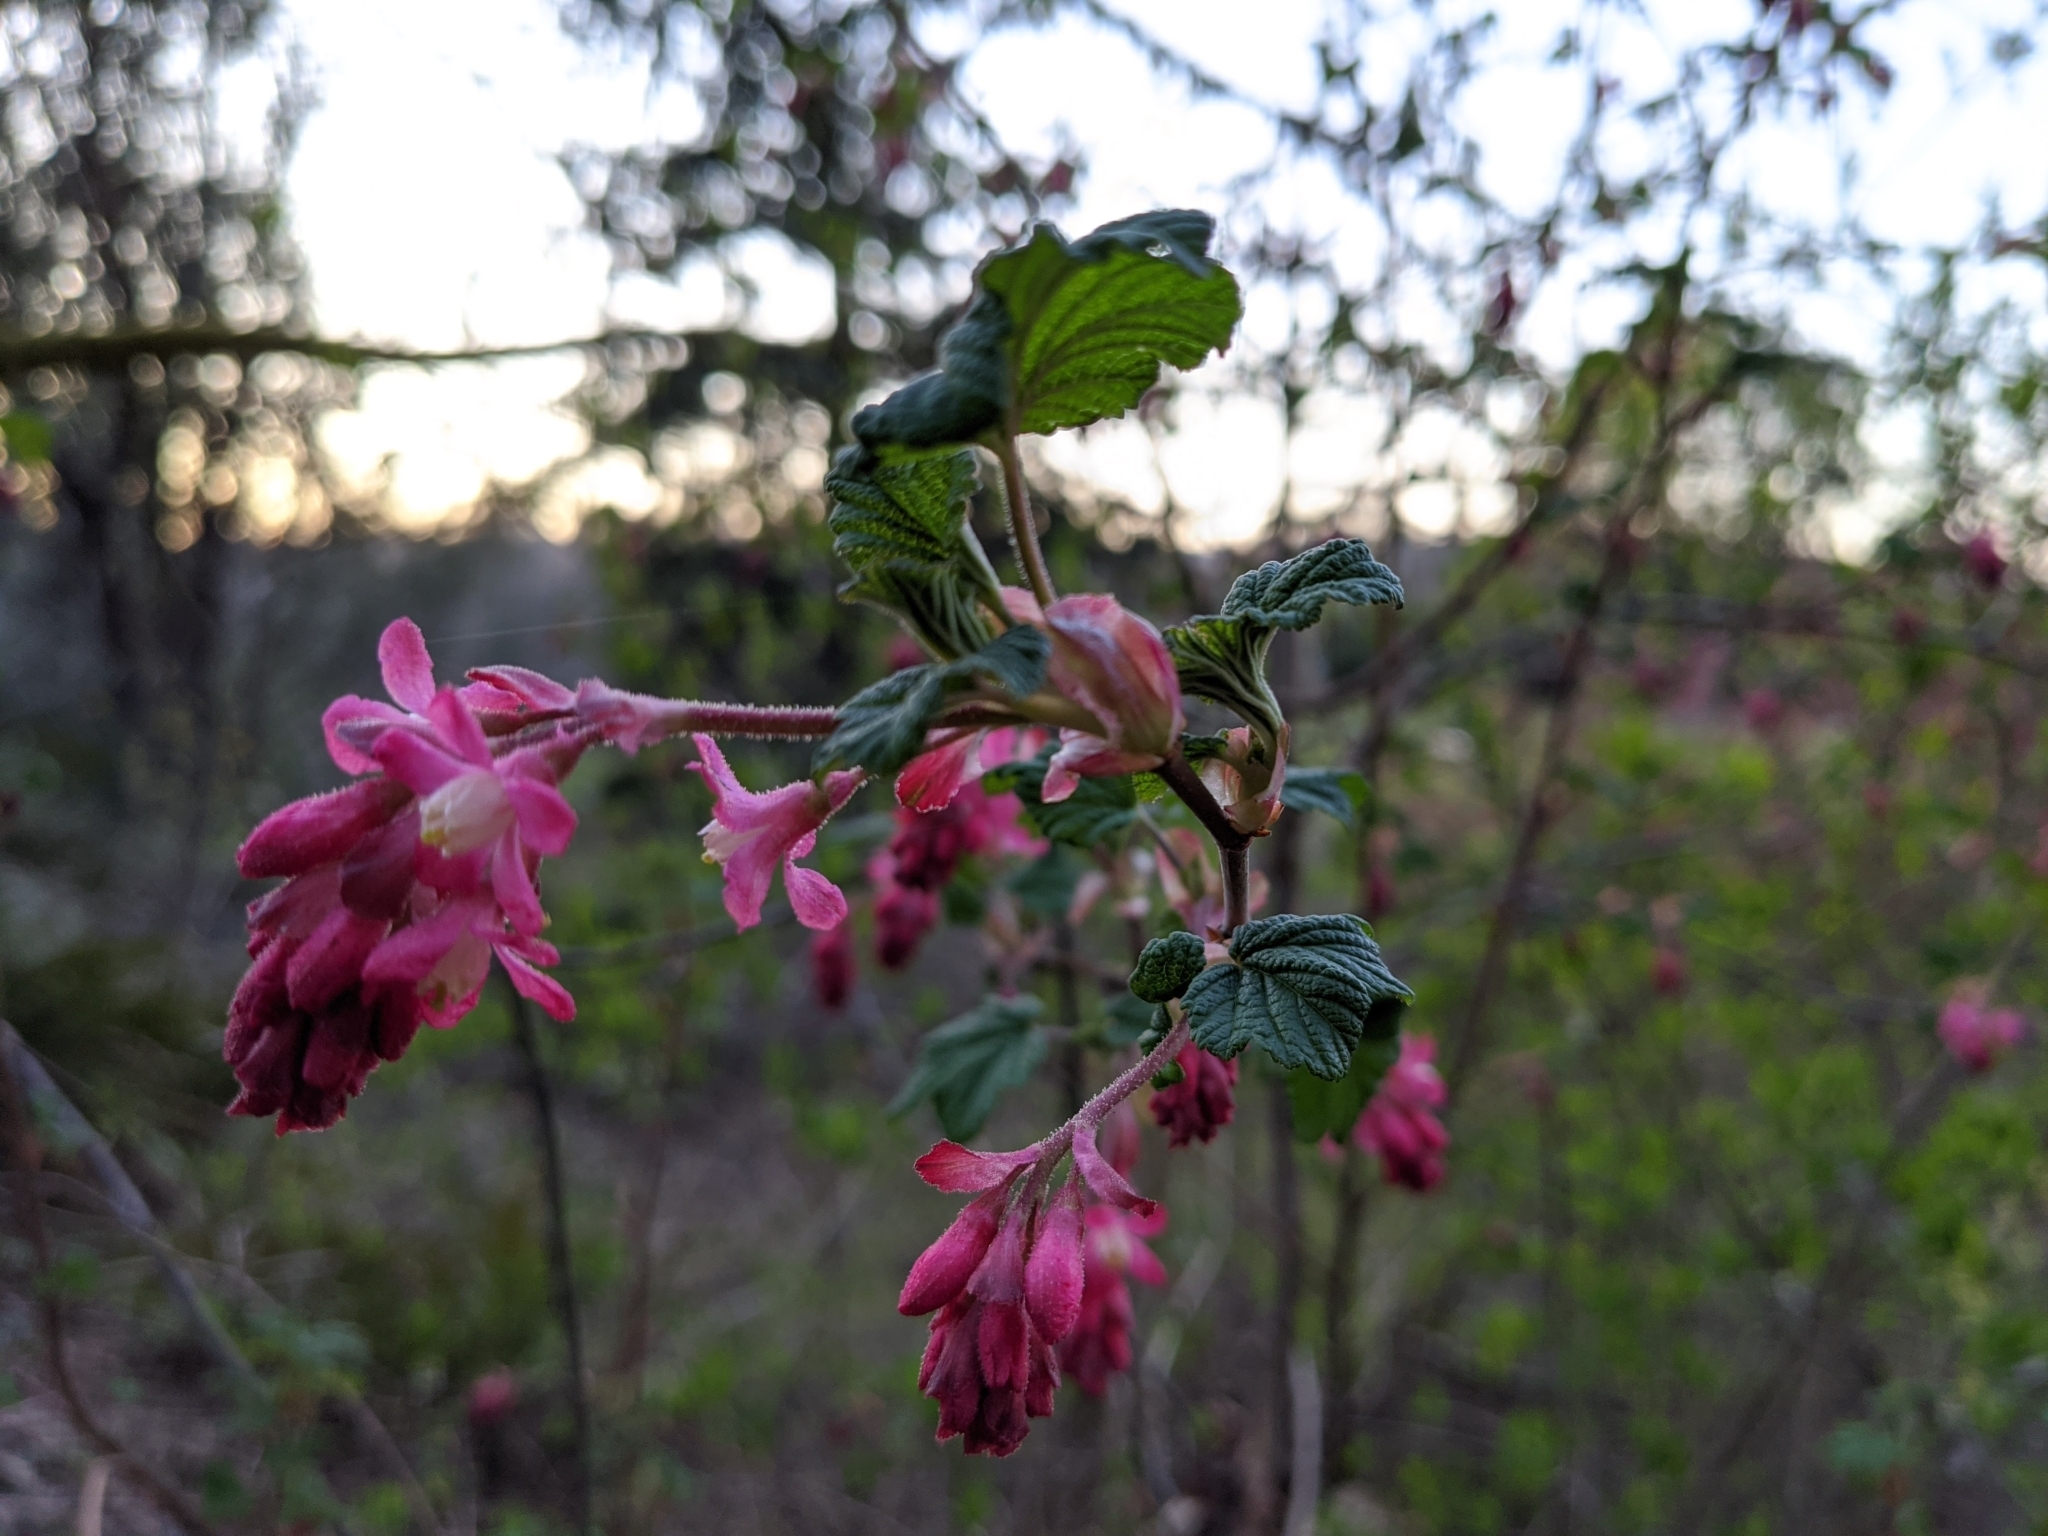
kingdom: Plantae
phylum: Tracheophyta
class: Magnoliopsida
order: Saxifragales
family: Grossulariaceae
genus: Ribes
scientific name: Ribes sanguineum
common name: Flowering currant
